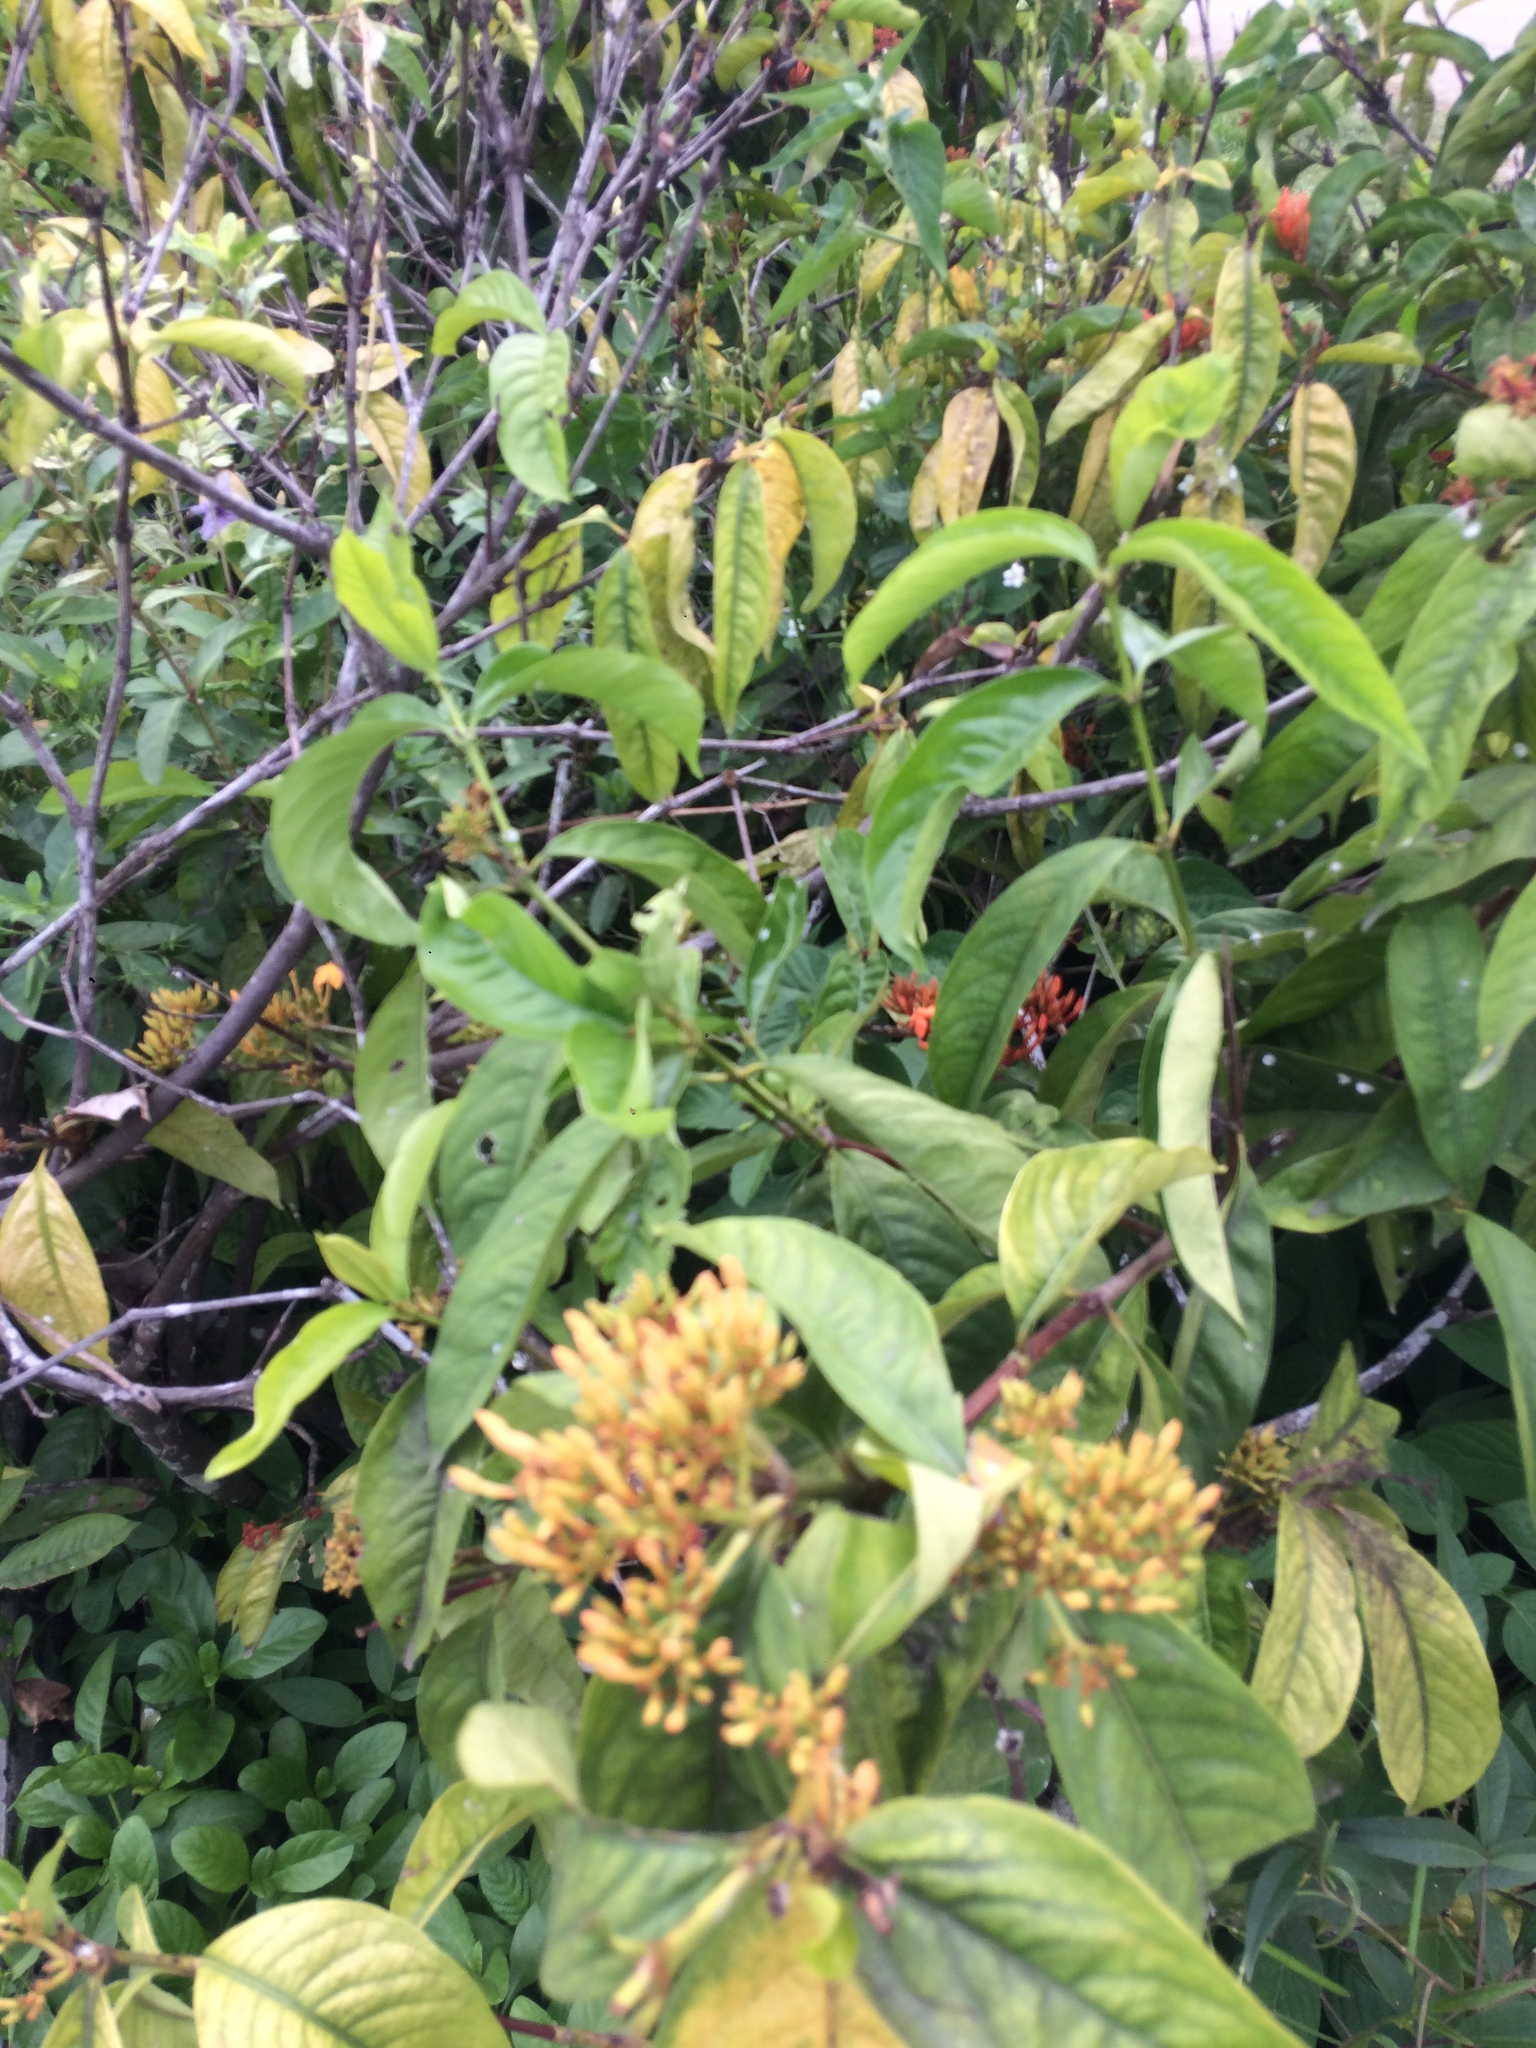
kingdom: Plantae
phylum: Tracheophyta
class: Magnoliopsida
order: Gentianales
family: Rubiaceae
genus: Ixora
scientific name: Ixora javanica
